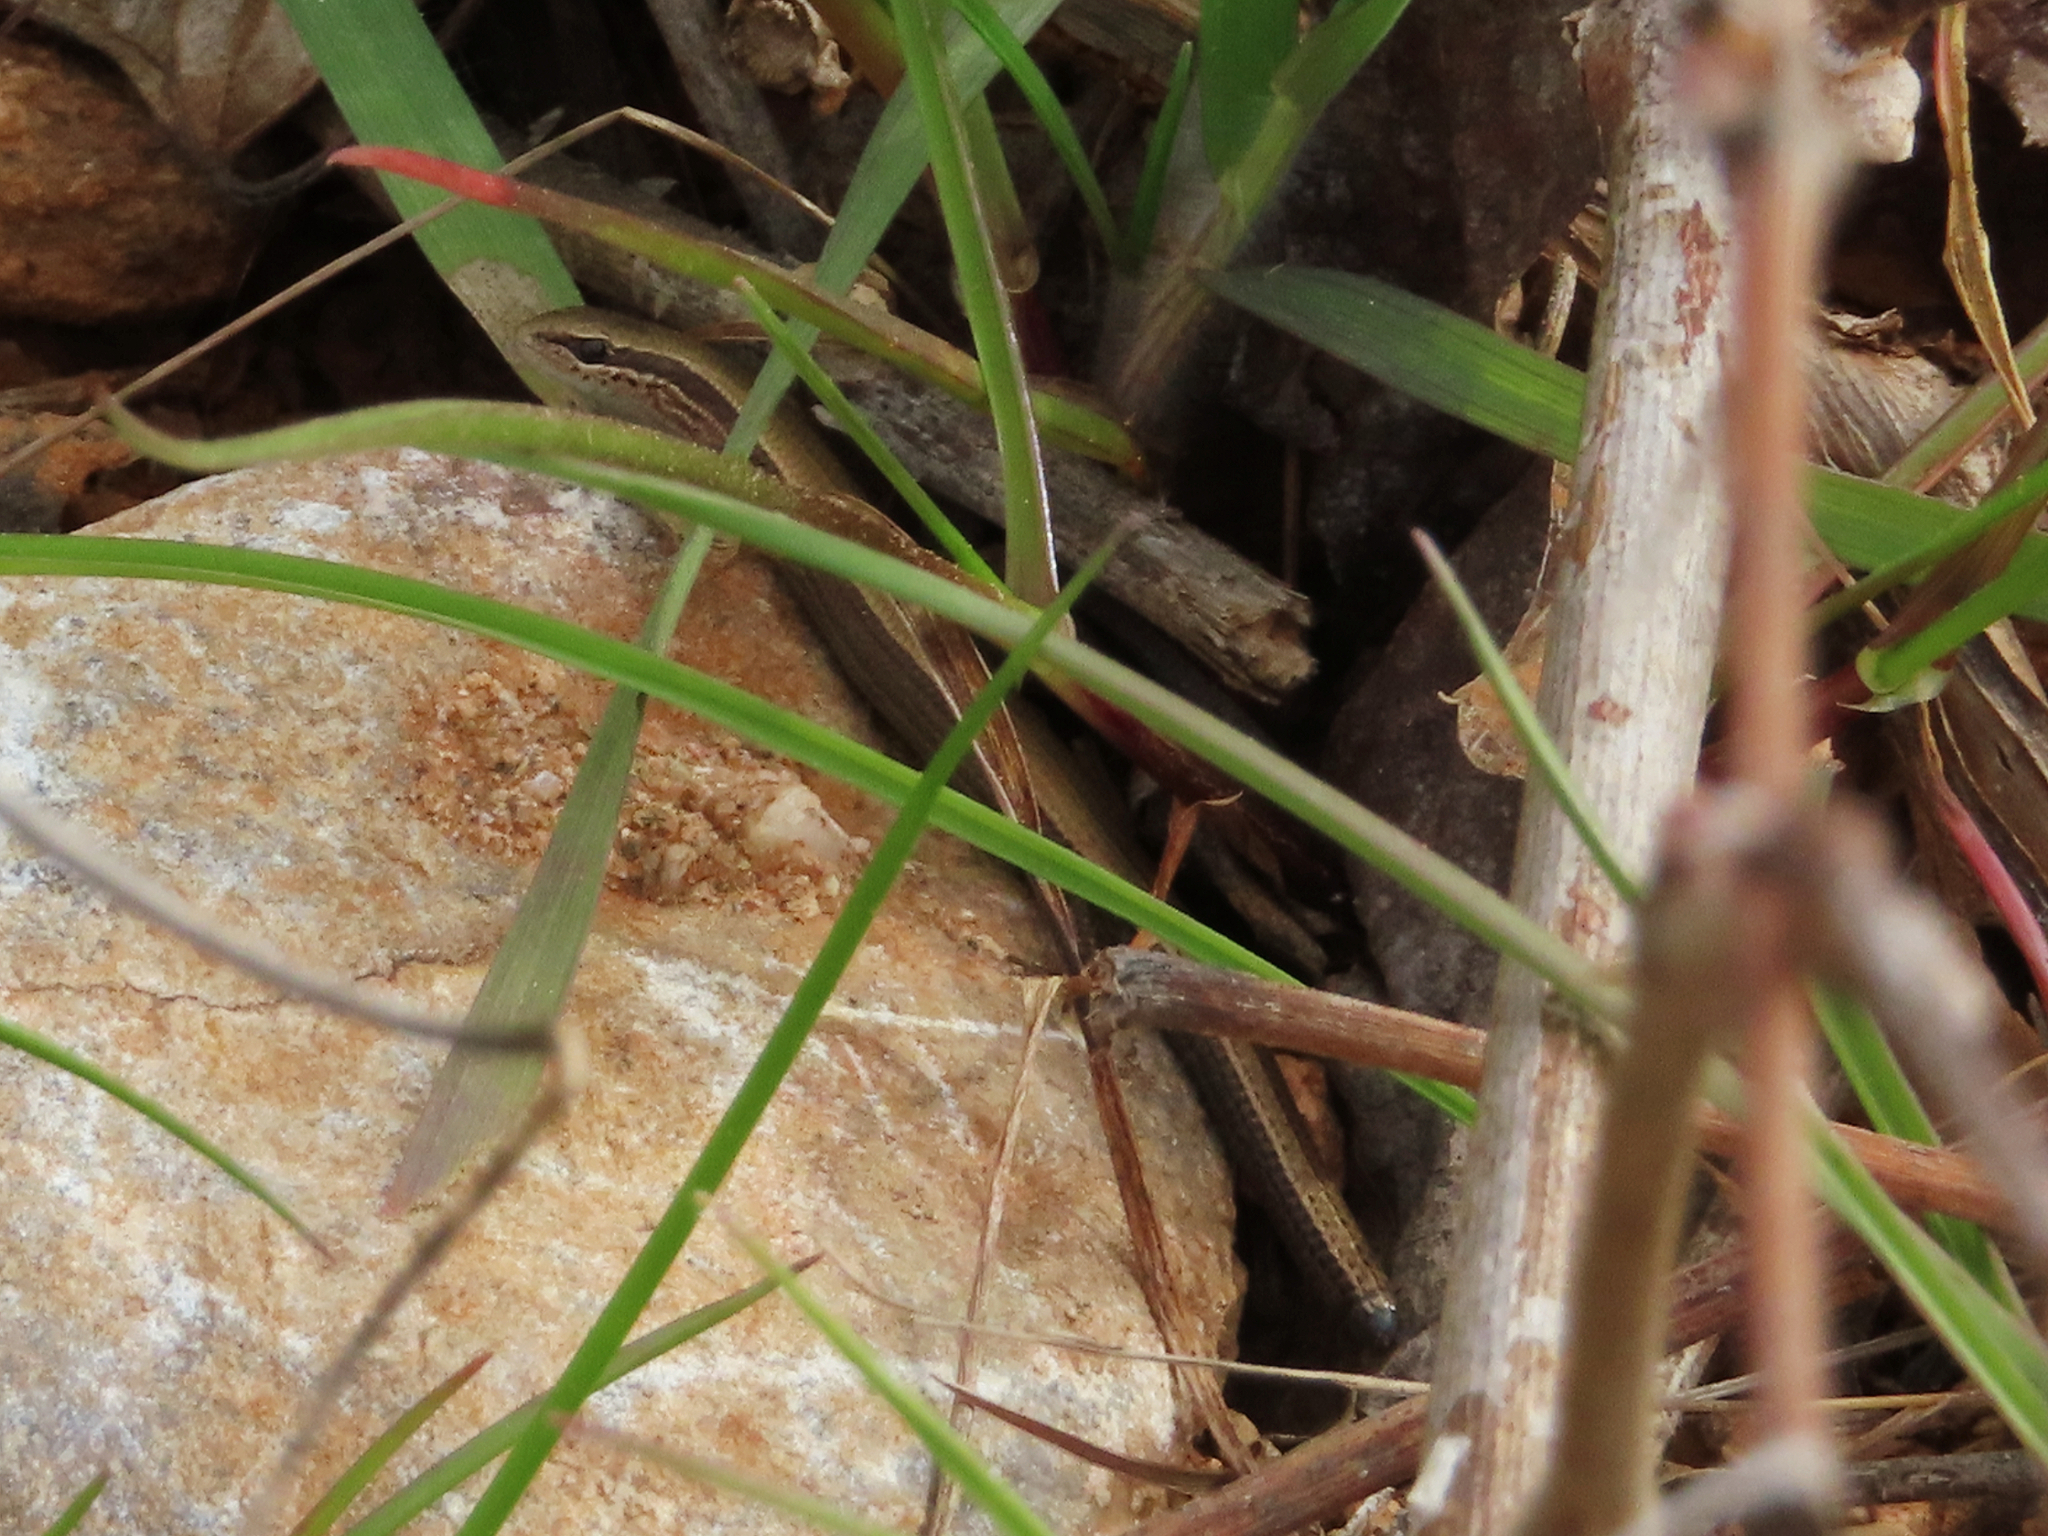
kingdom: Animalia
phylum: Chordata
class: Squamata
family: Scincidae
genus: Ablepharus
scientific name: Ablepharus kitaibelii
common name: Juniper skink
